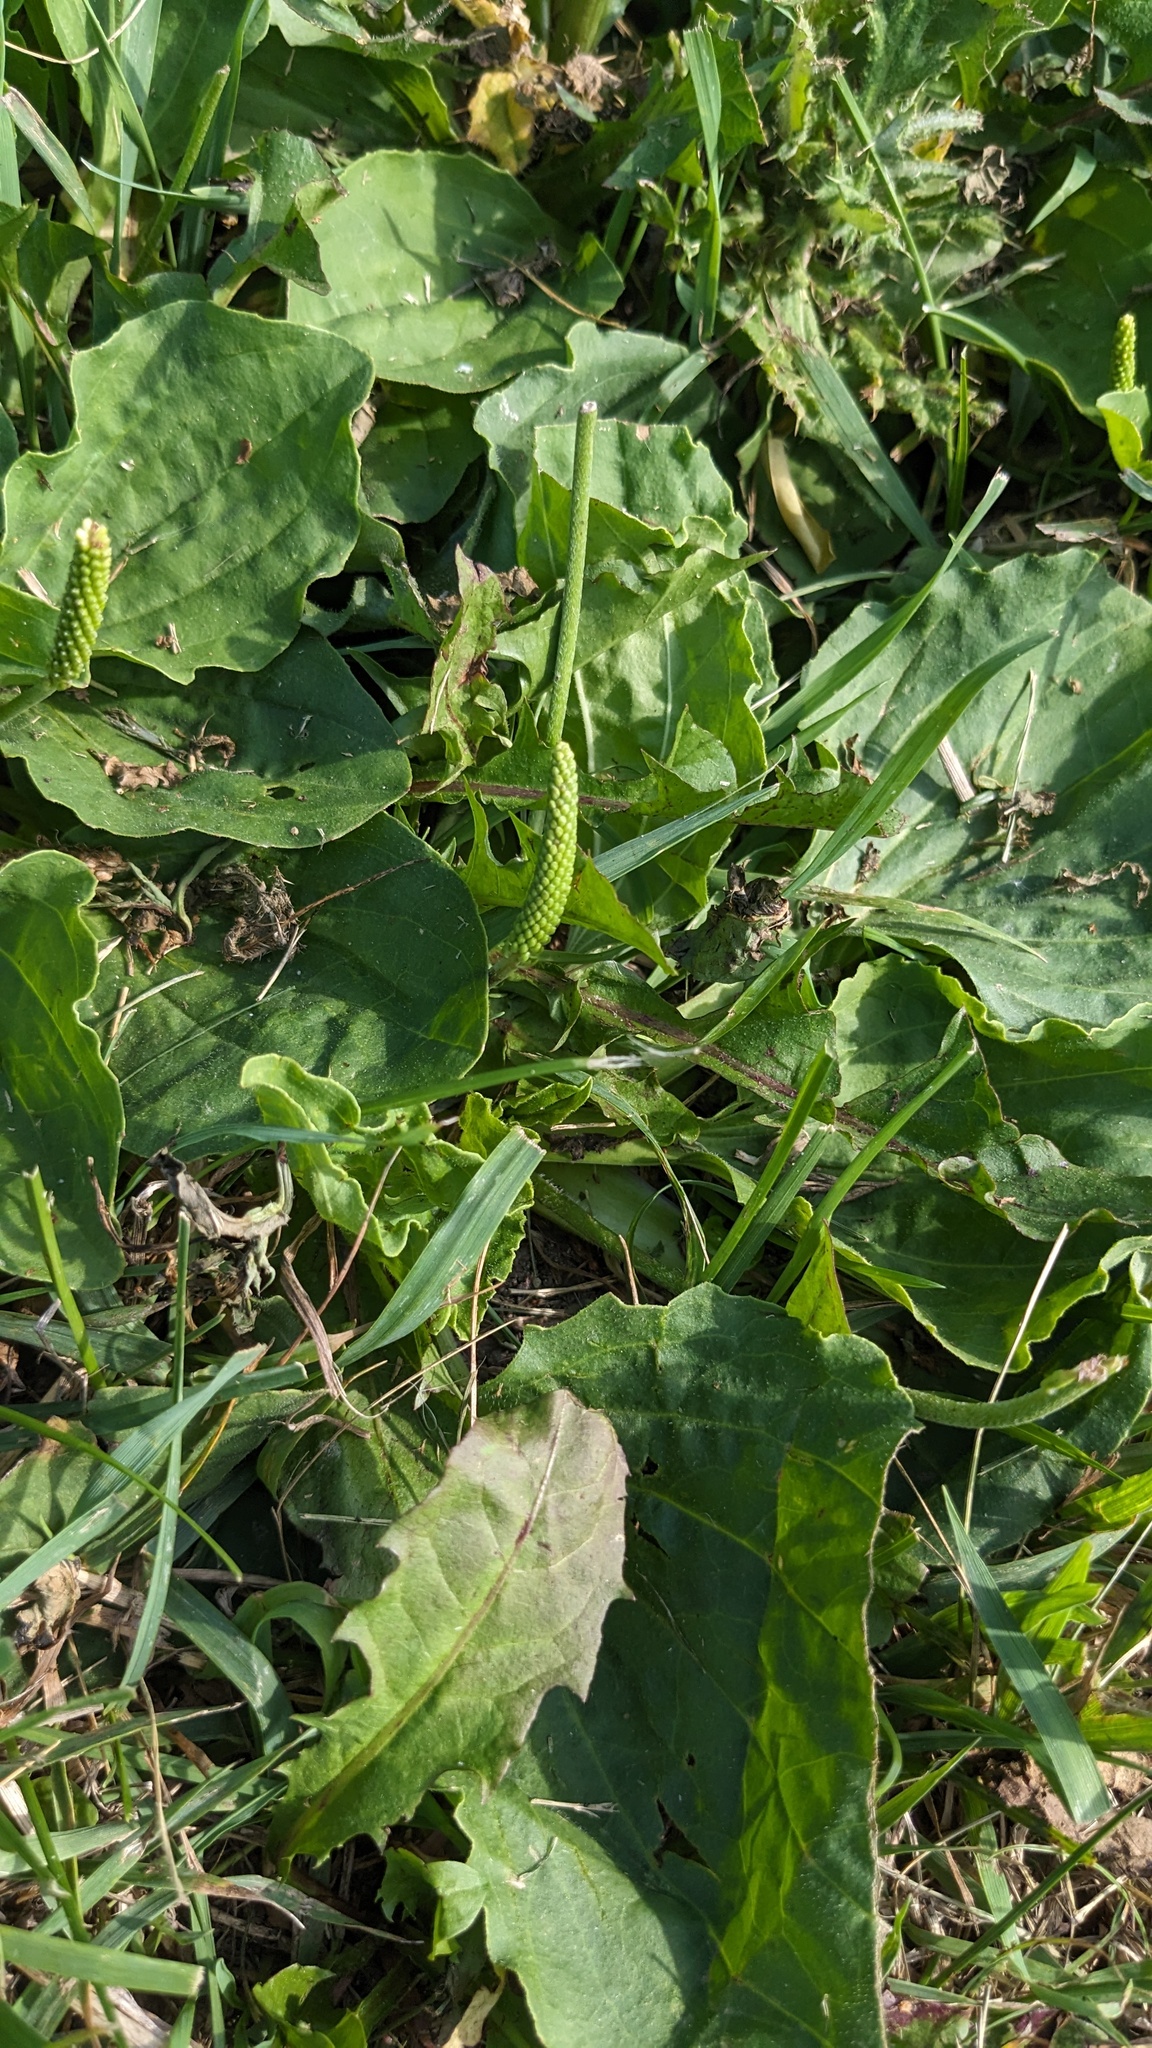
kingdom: Plantae
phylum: Tracheophyta
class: Magnoliopsida
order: Lamiales
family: Plantaginaceae
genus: Plantago
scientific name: Plantago major
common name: Common plantain
